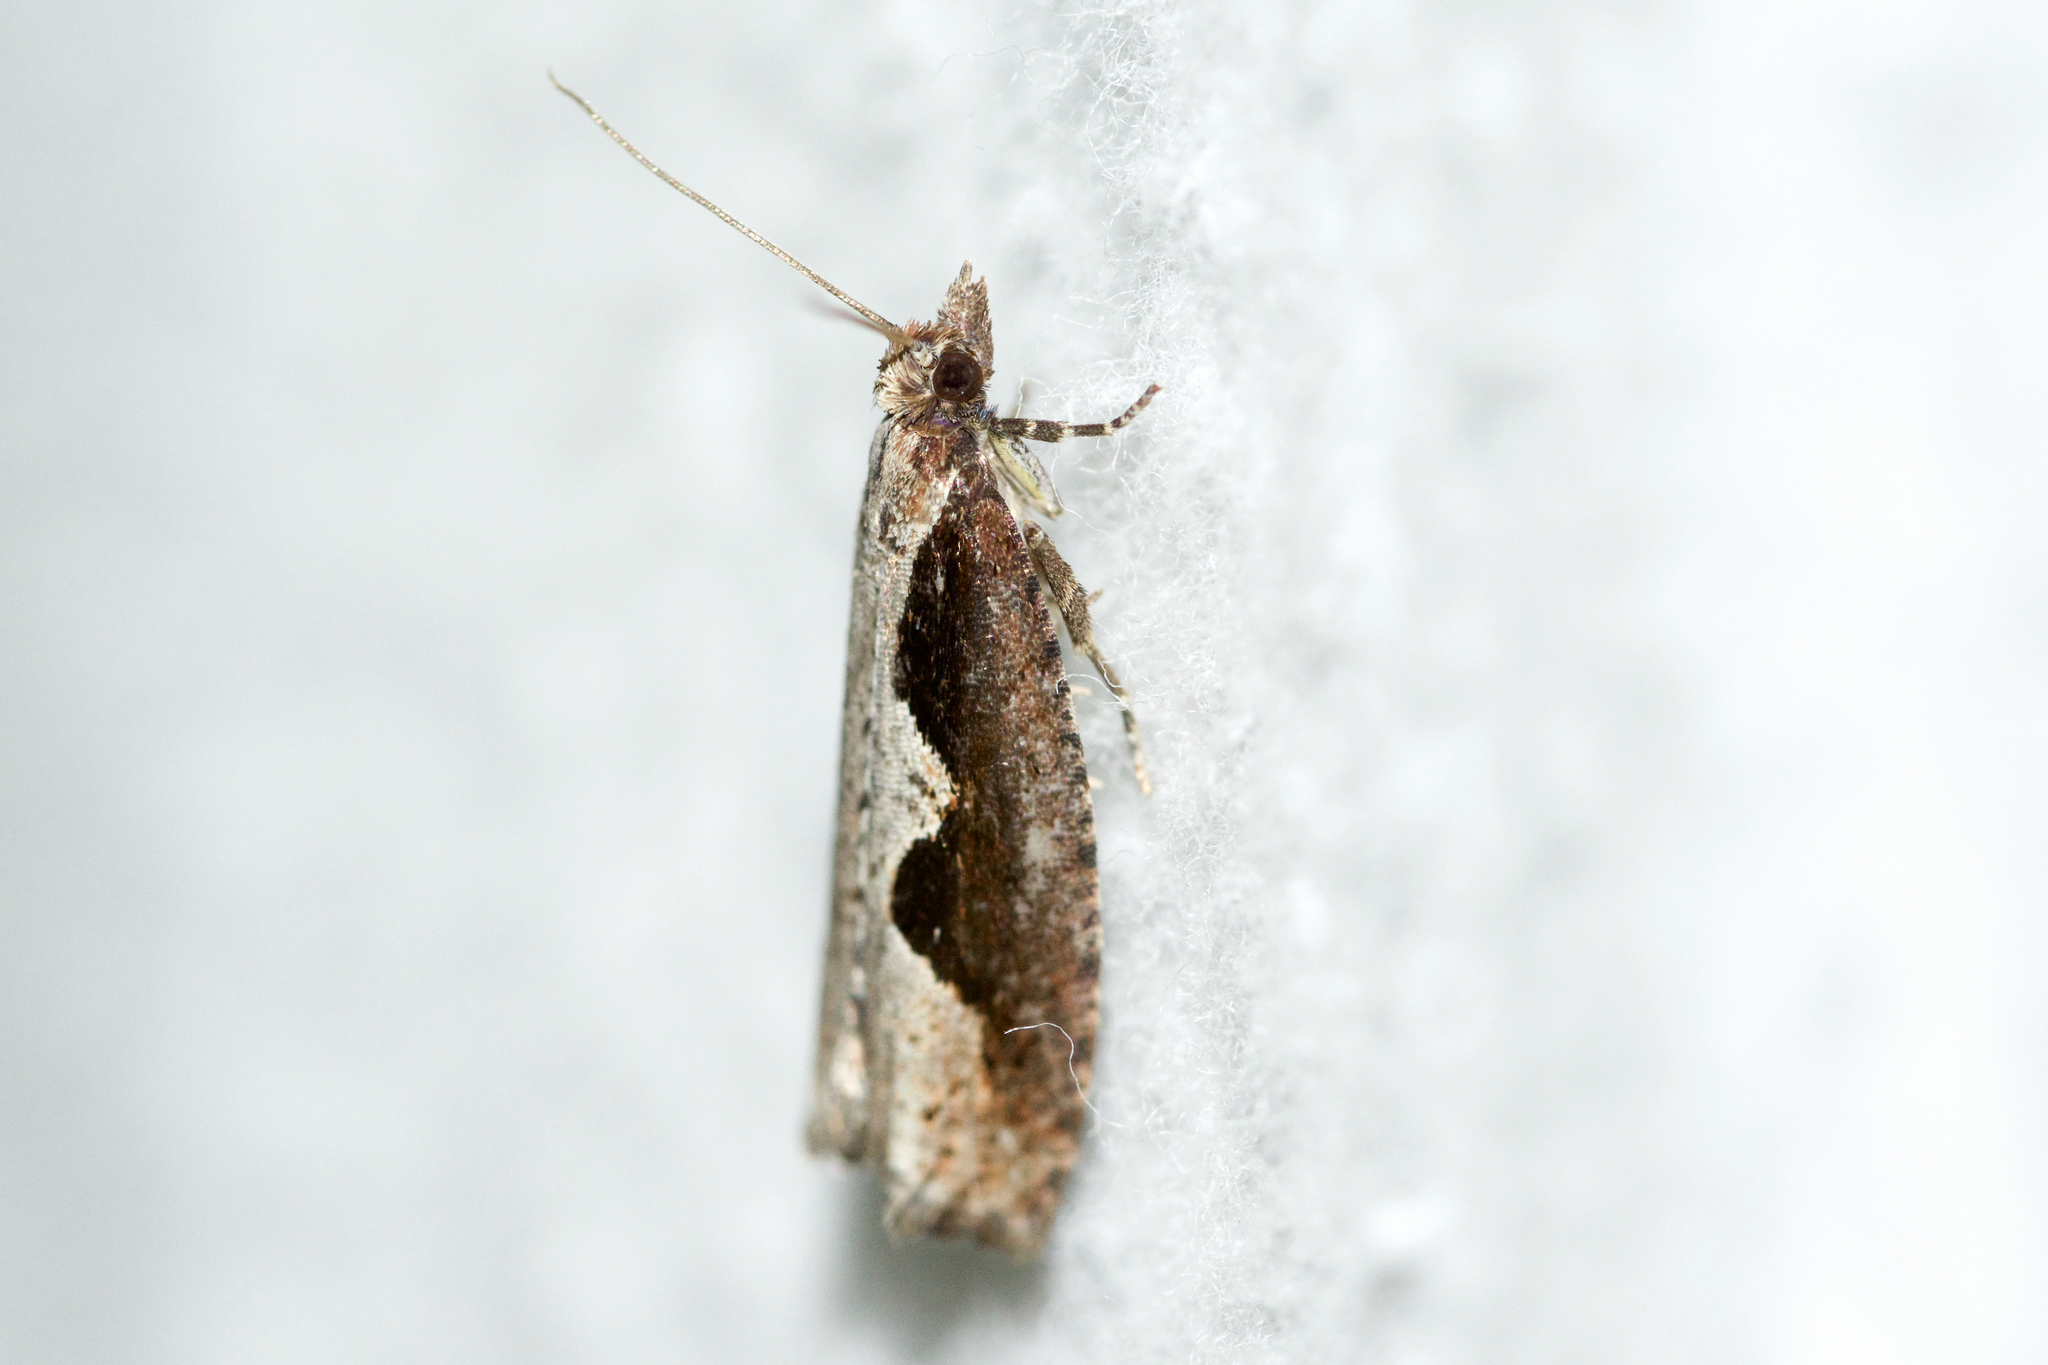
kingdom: Animalia
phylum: Arthropoda
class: Insecta
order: Lepidoptera
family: Tortricidae
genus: Epinotia
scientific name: Epinotia lindana
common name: Diamondback epinotia moth
